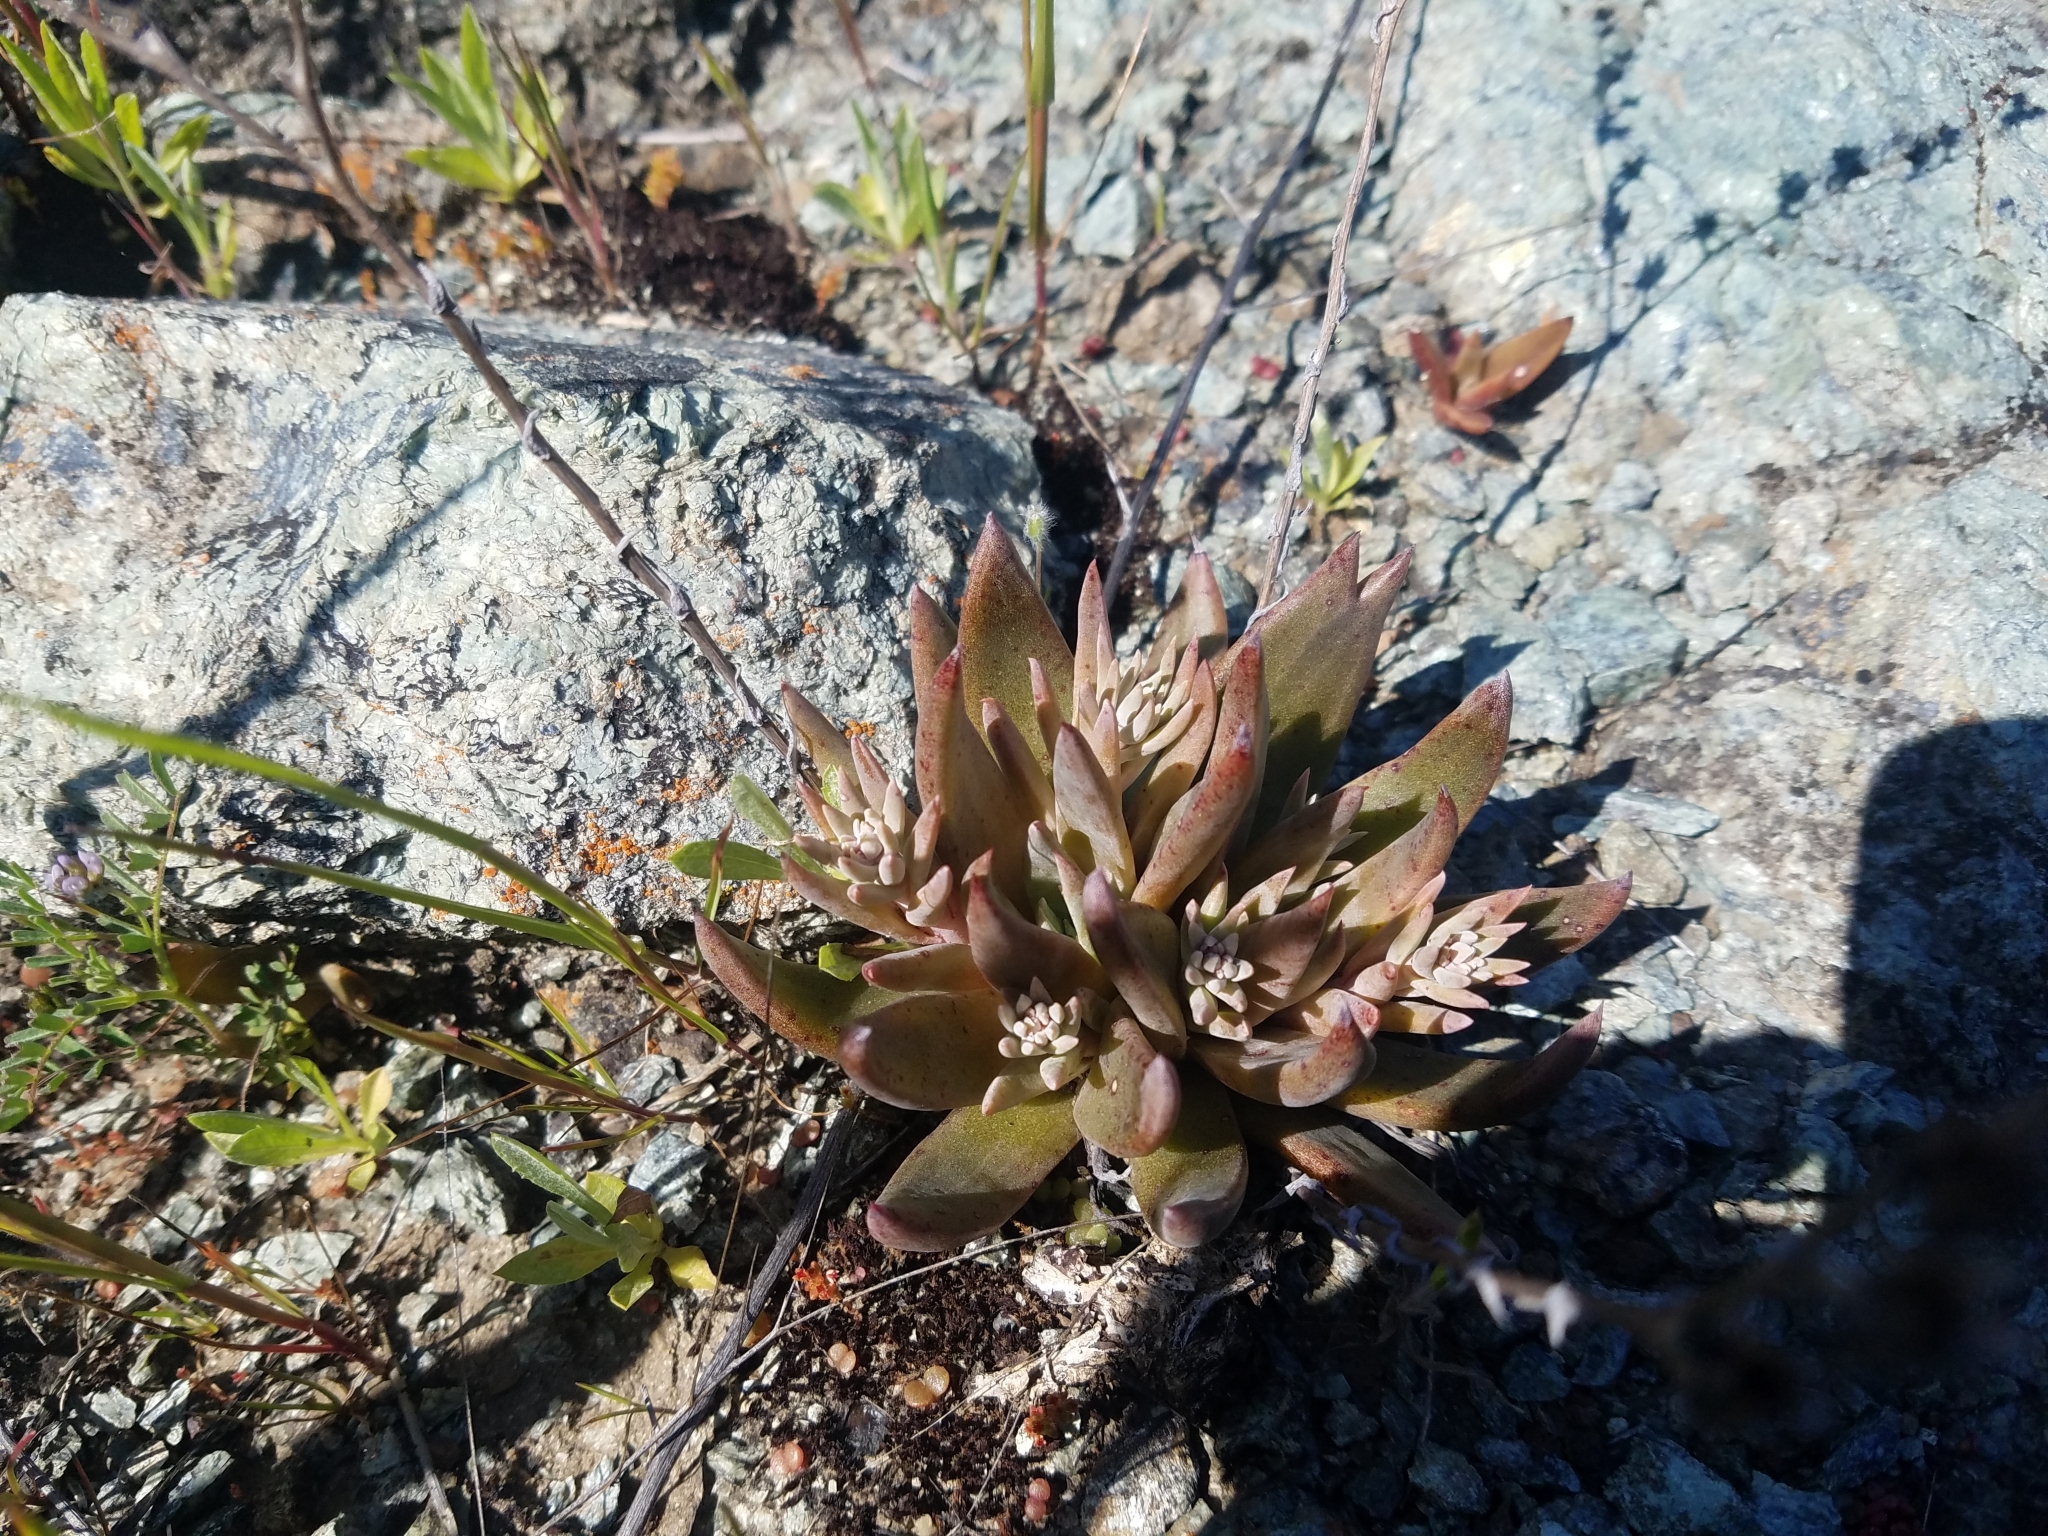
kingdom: Plantae
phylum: Tracheophyta
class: Magnoliopsida
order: Saxifragales
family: Crassulaceae
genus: Dudleya
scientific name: Dudleya abramsii
